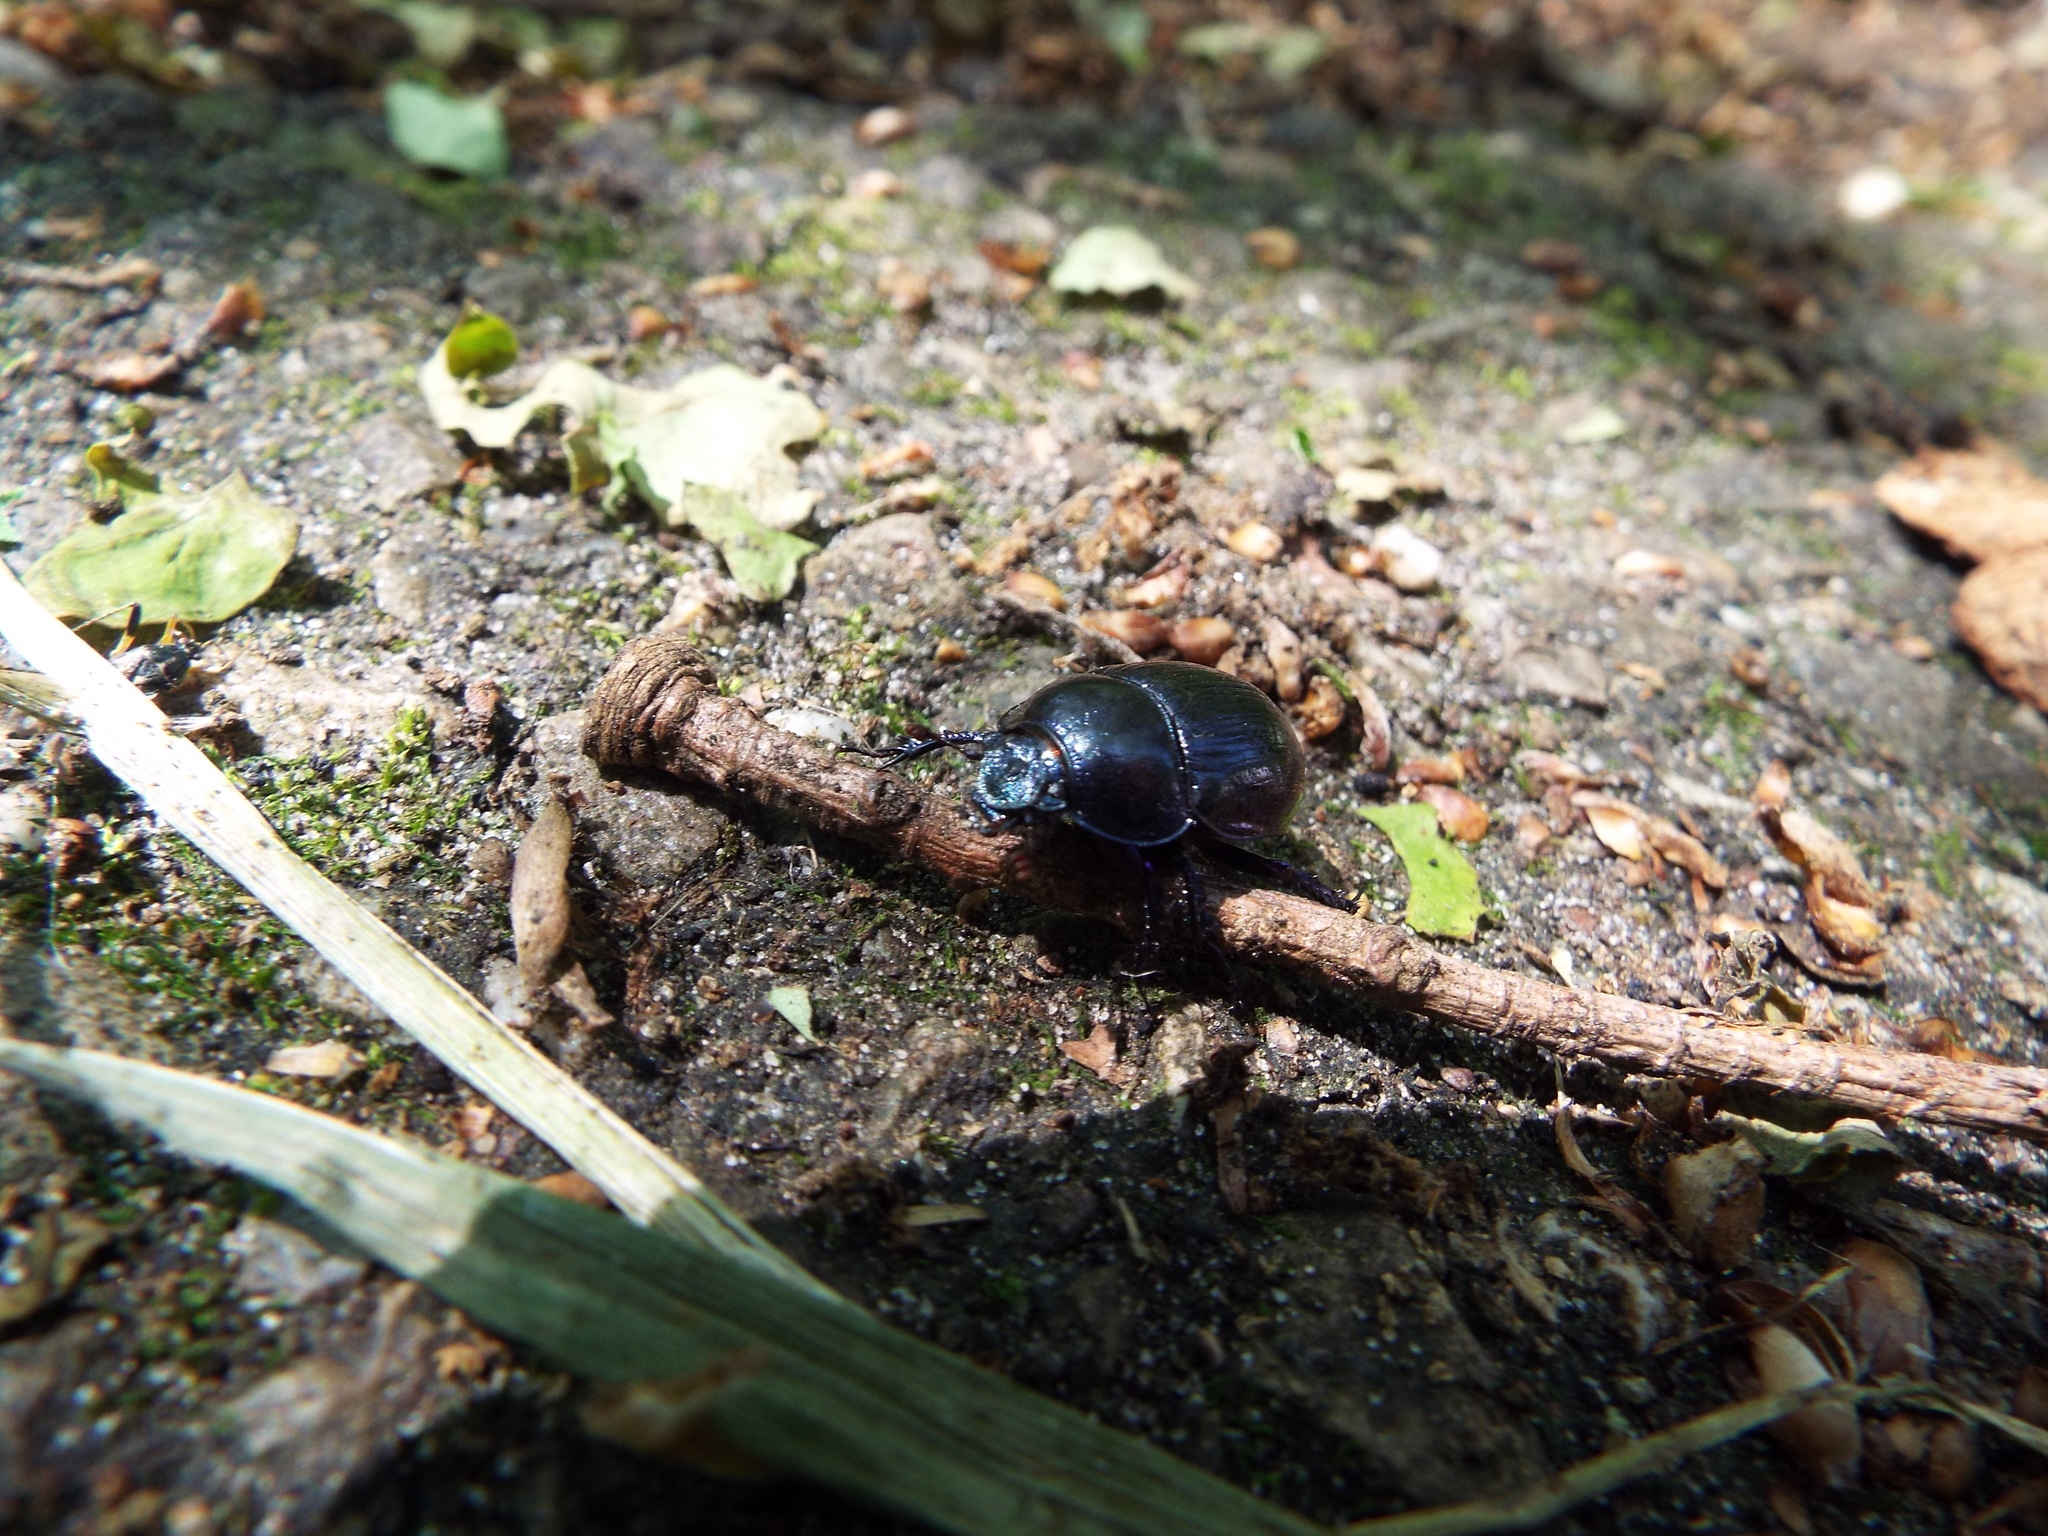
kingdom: Animalia
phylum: Arthropoda
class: Insecta
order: Coleoptera
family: Geotrupidae
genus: Anoplotrupes
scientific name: Anoplotrupes stercorosus
